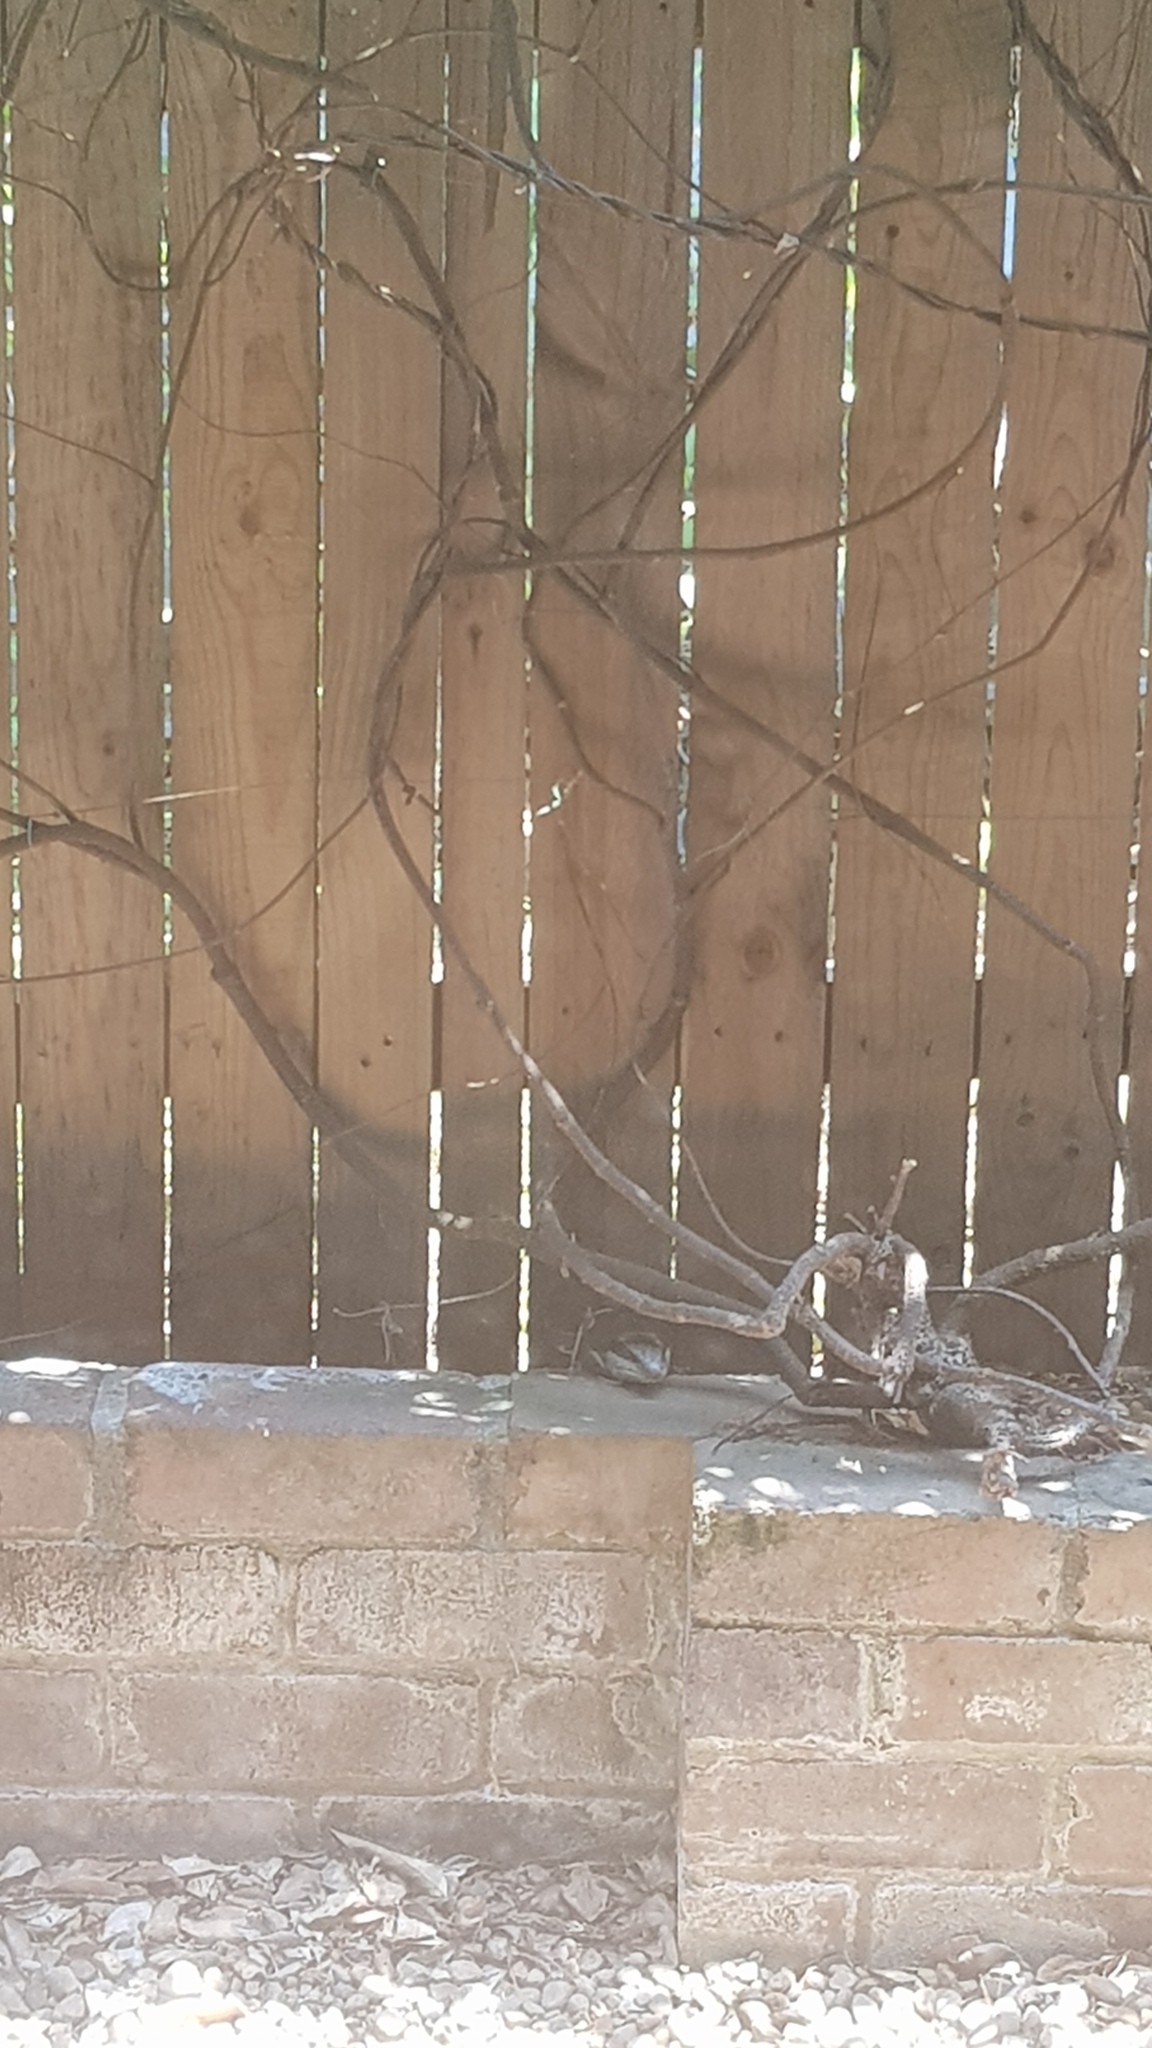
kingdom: Animalia
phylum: Chordata
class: Squamata
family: Scincidae
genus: Tiliqua
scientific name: Tiliqua scincoides
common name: Common bluetongue
